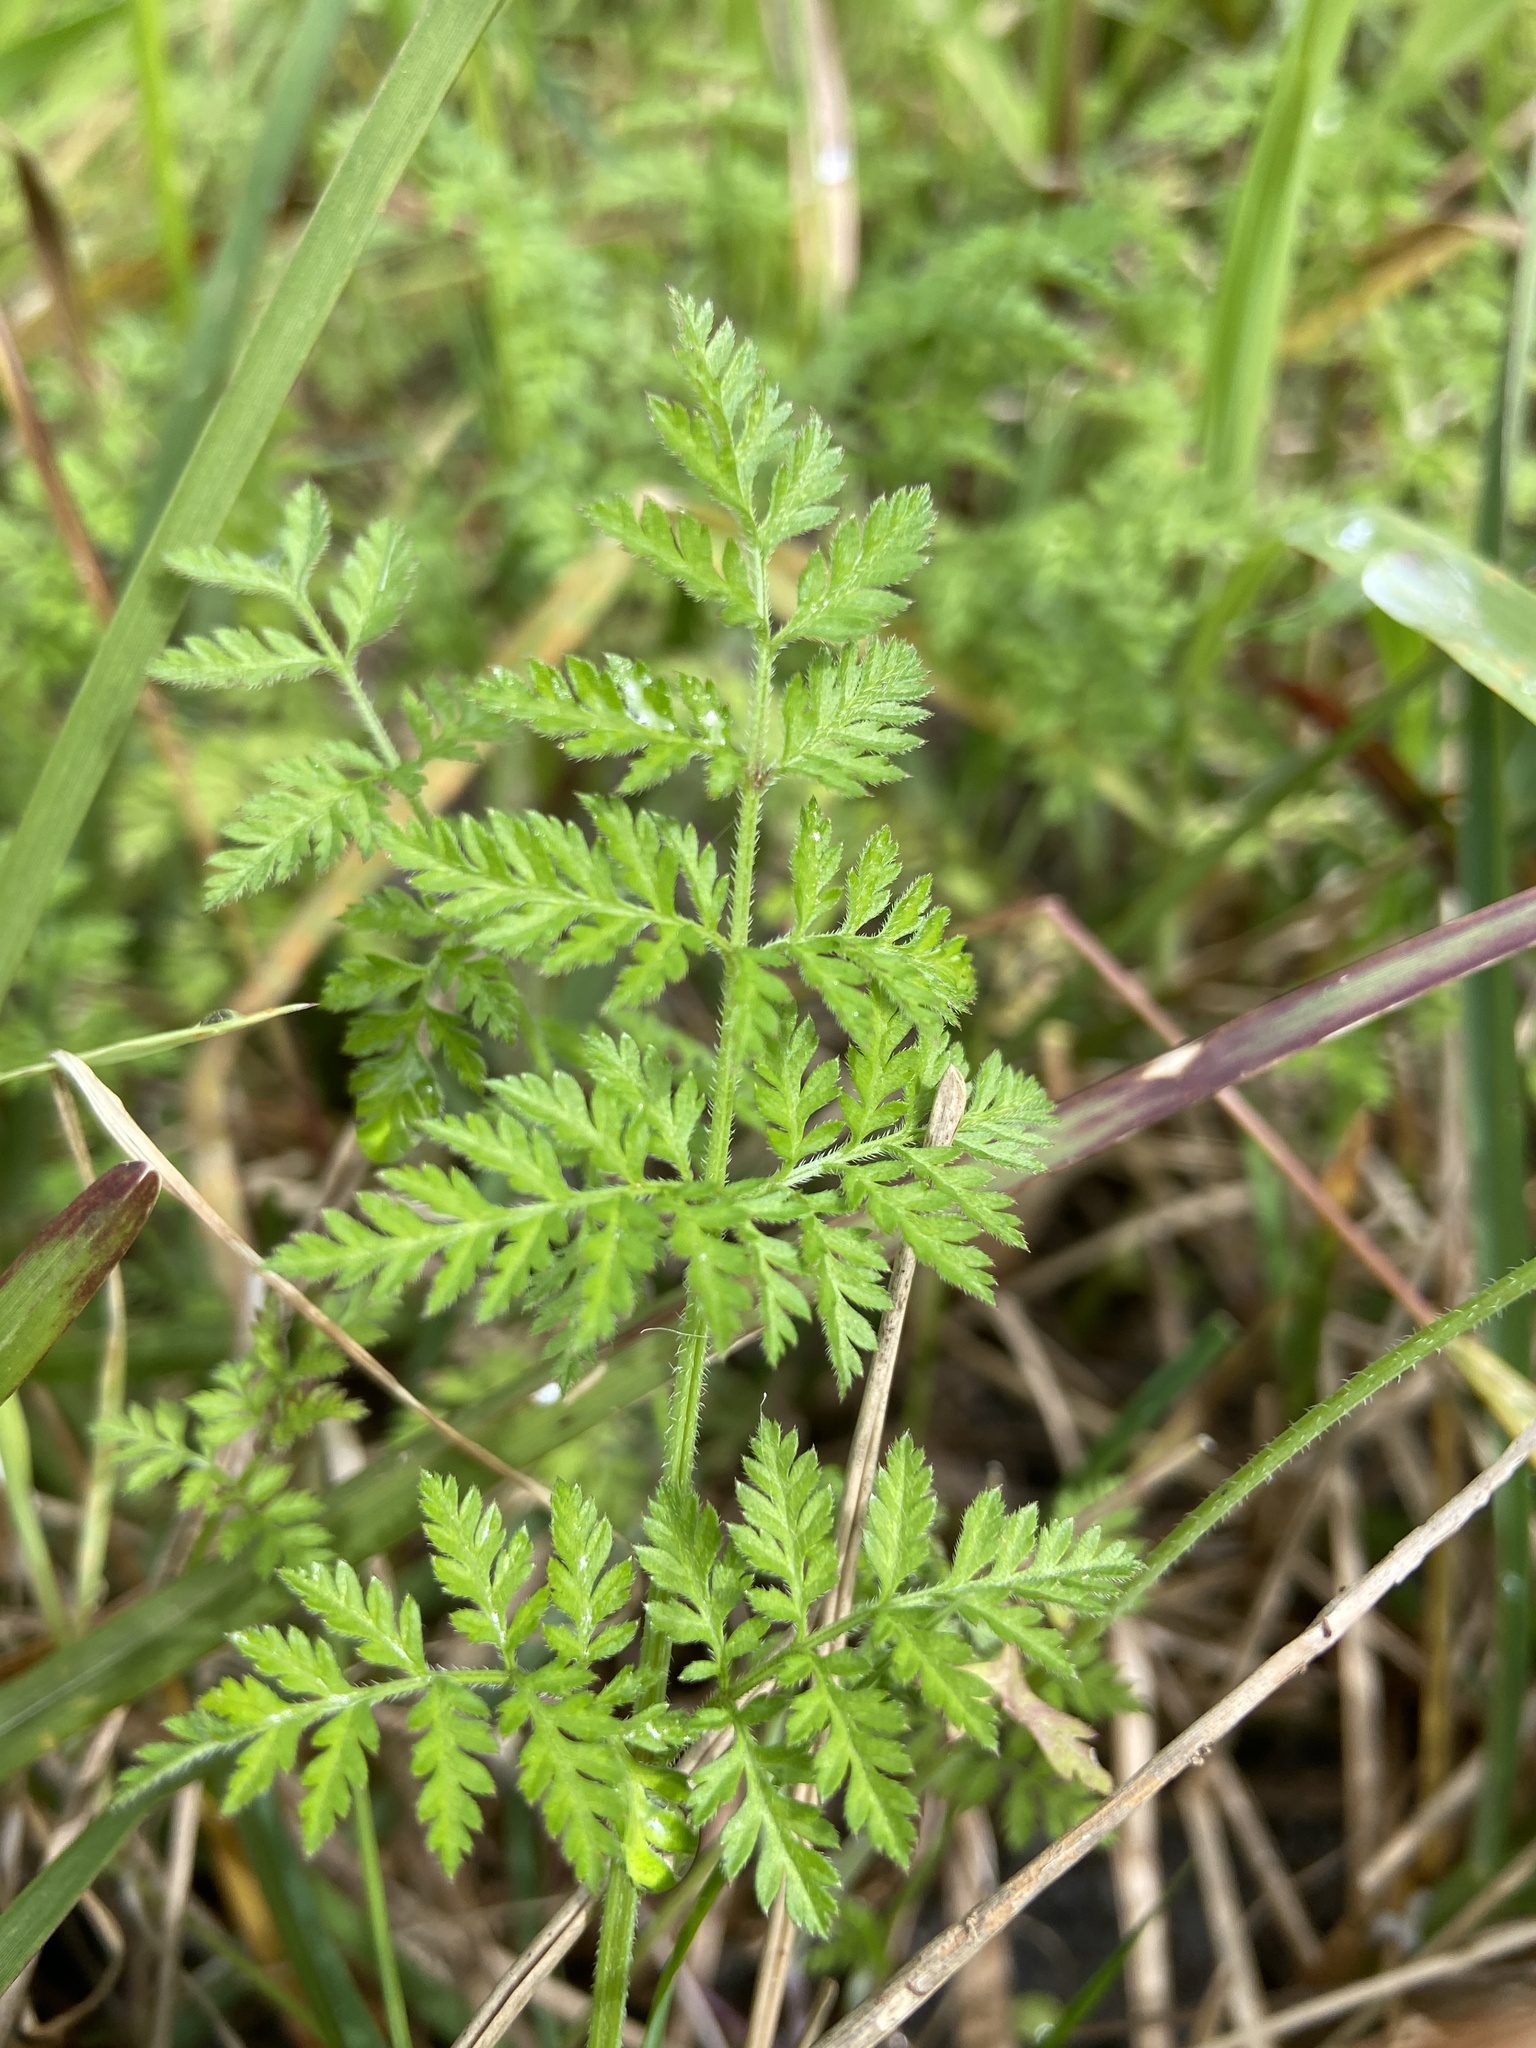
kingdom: Plantae
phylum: Tracheophyta
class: Magnoliopsida
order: Apiales
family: Apiaceae
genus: Torilis
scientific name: Torilis africana
